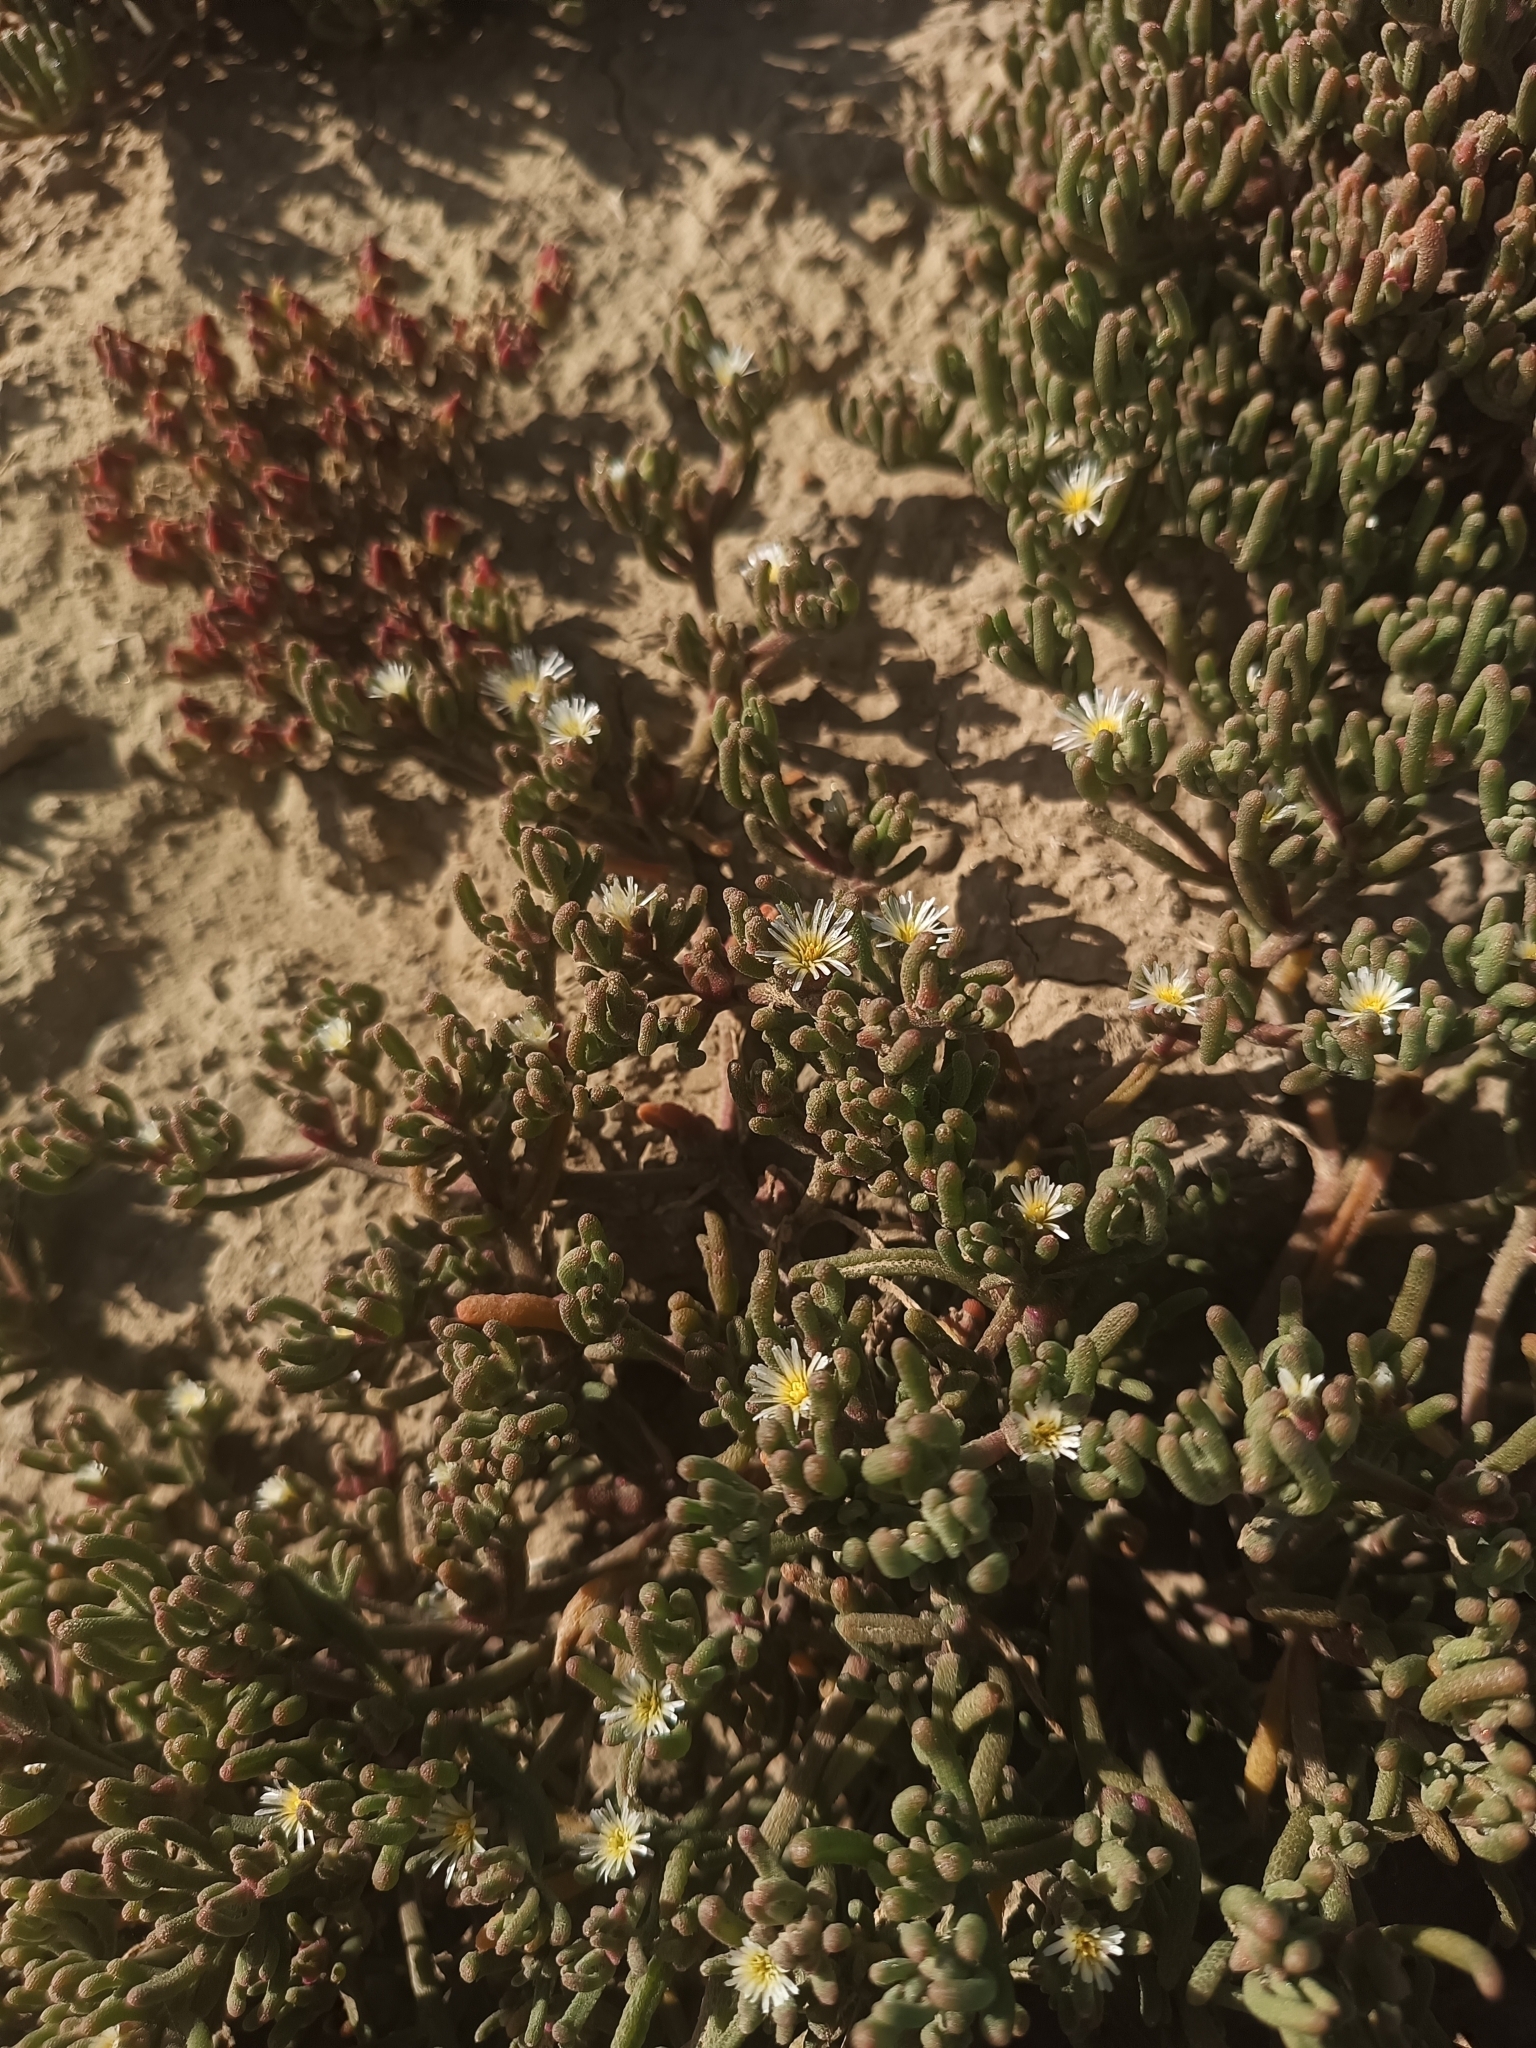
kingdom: Plantae
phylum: Tracheophyta
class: Magnoliopsida
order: Caryophyllales
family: Aizoaceae
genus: Mesembryanthemum
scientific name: Mesembryanthemum nodiflorum
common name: Slenderleaf iceplant
